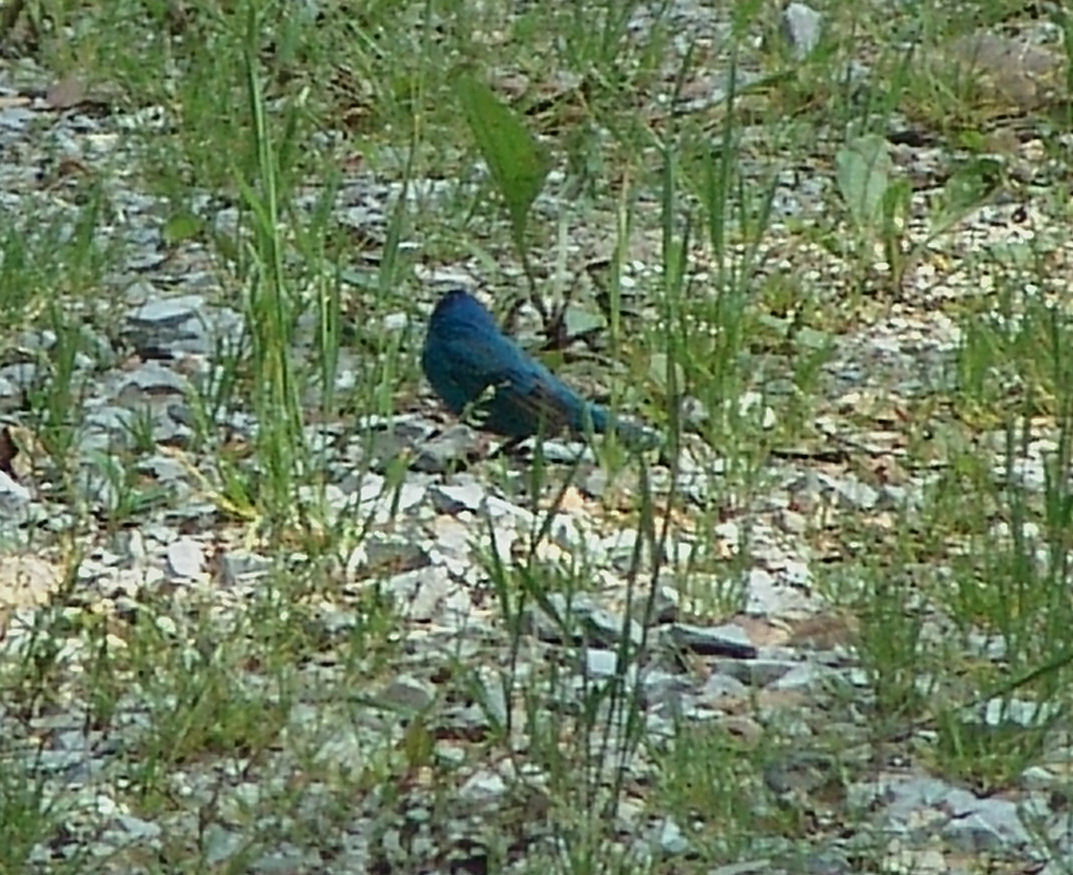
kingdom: Animalia
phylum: Chordata
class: Aves
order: Passeriformes
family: Cardinalidae
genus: Passerina
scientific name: Passerina cyanea
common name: Indigo bunting
